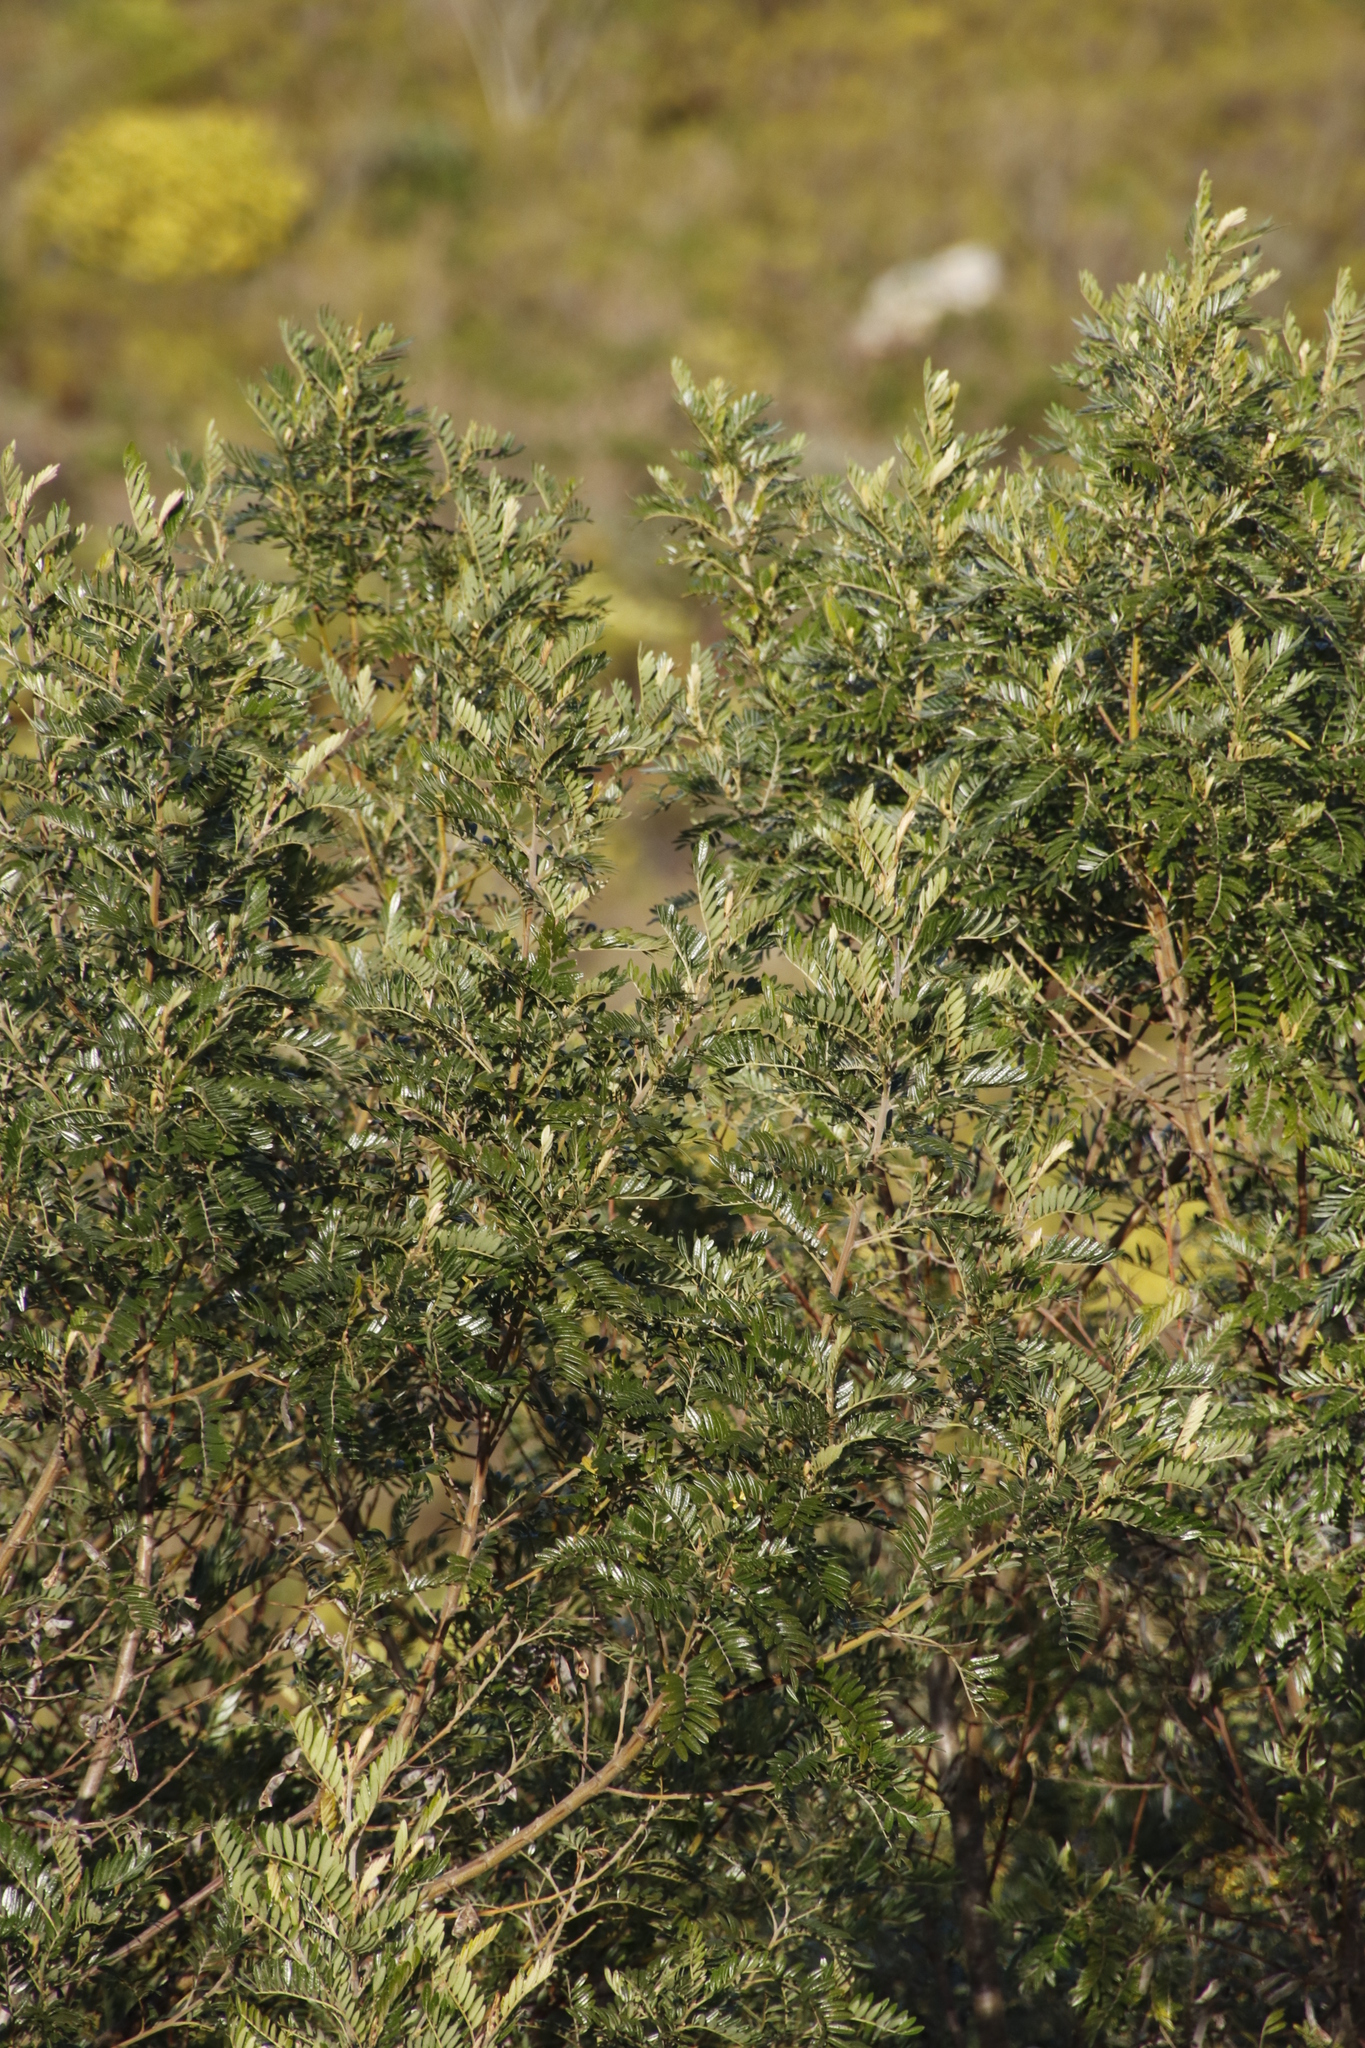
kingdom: Plantae
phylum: Tracheophyta
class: Magnoliopsida
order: Fabales
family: Fabaceae
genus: Virgilia
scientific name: Virgilia oroboides
